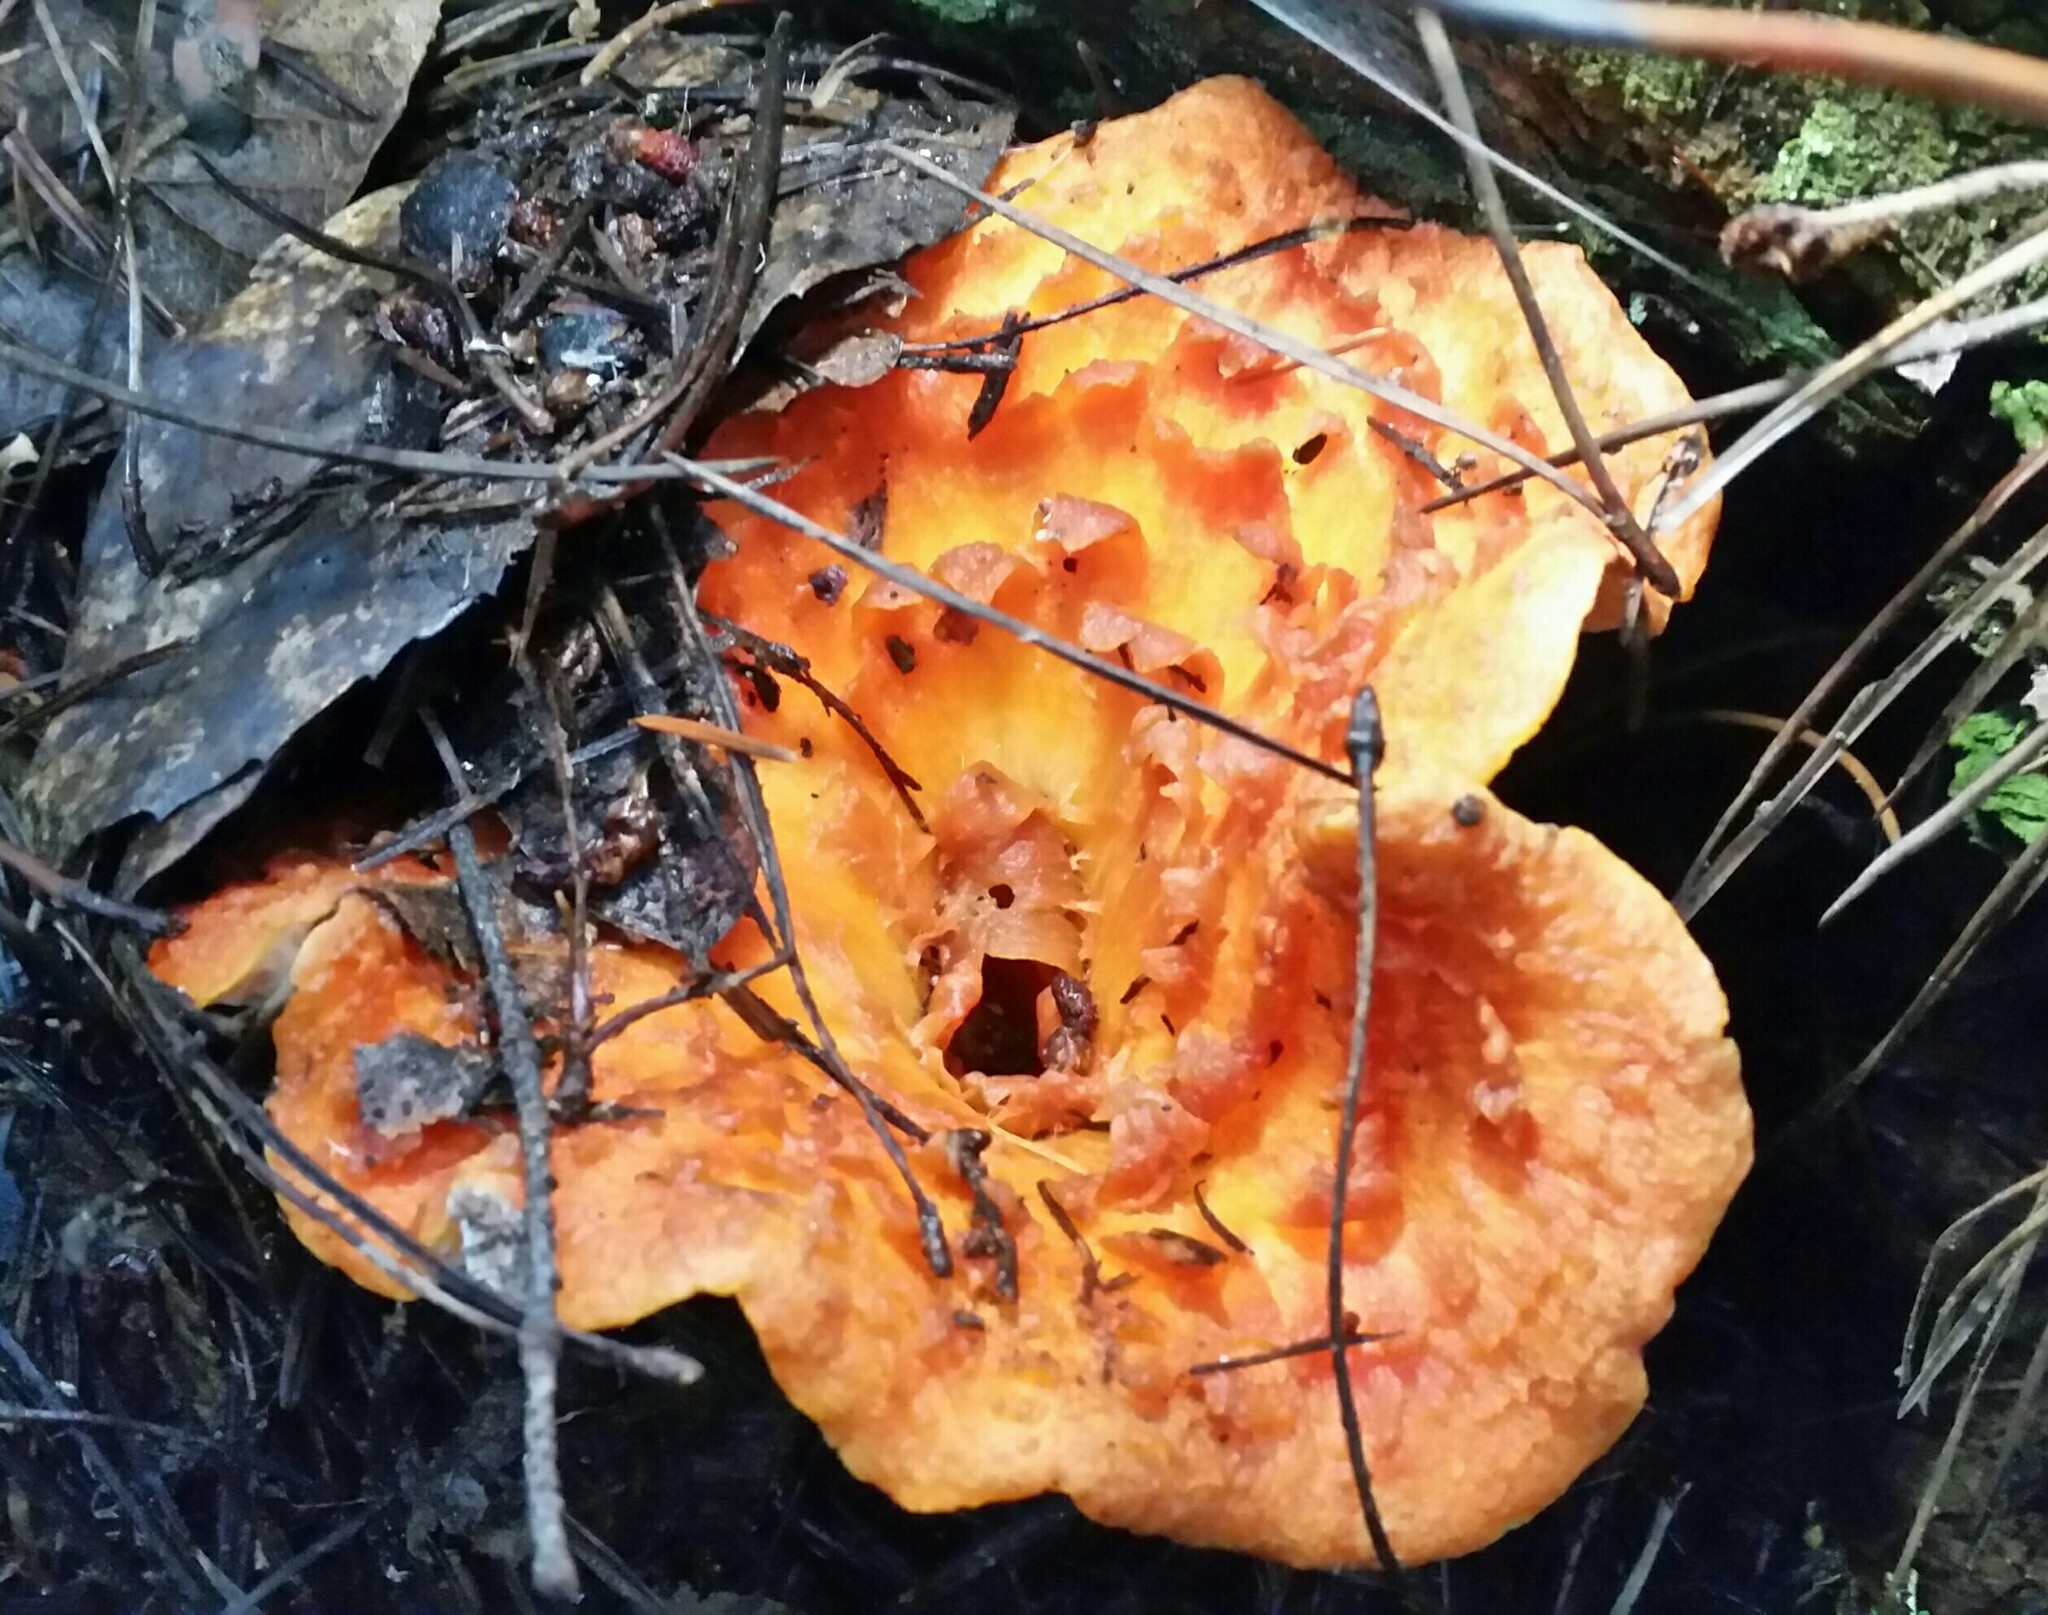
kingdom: Fungi
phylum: Basidiomycota
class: Agaricomycetes
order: Gomphales
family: Gomphaceae
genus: Turbinellus
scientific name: Turbinellus floccosus
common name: Scaly chanterelle
